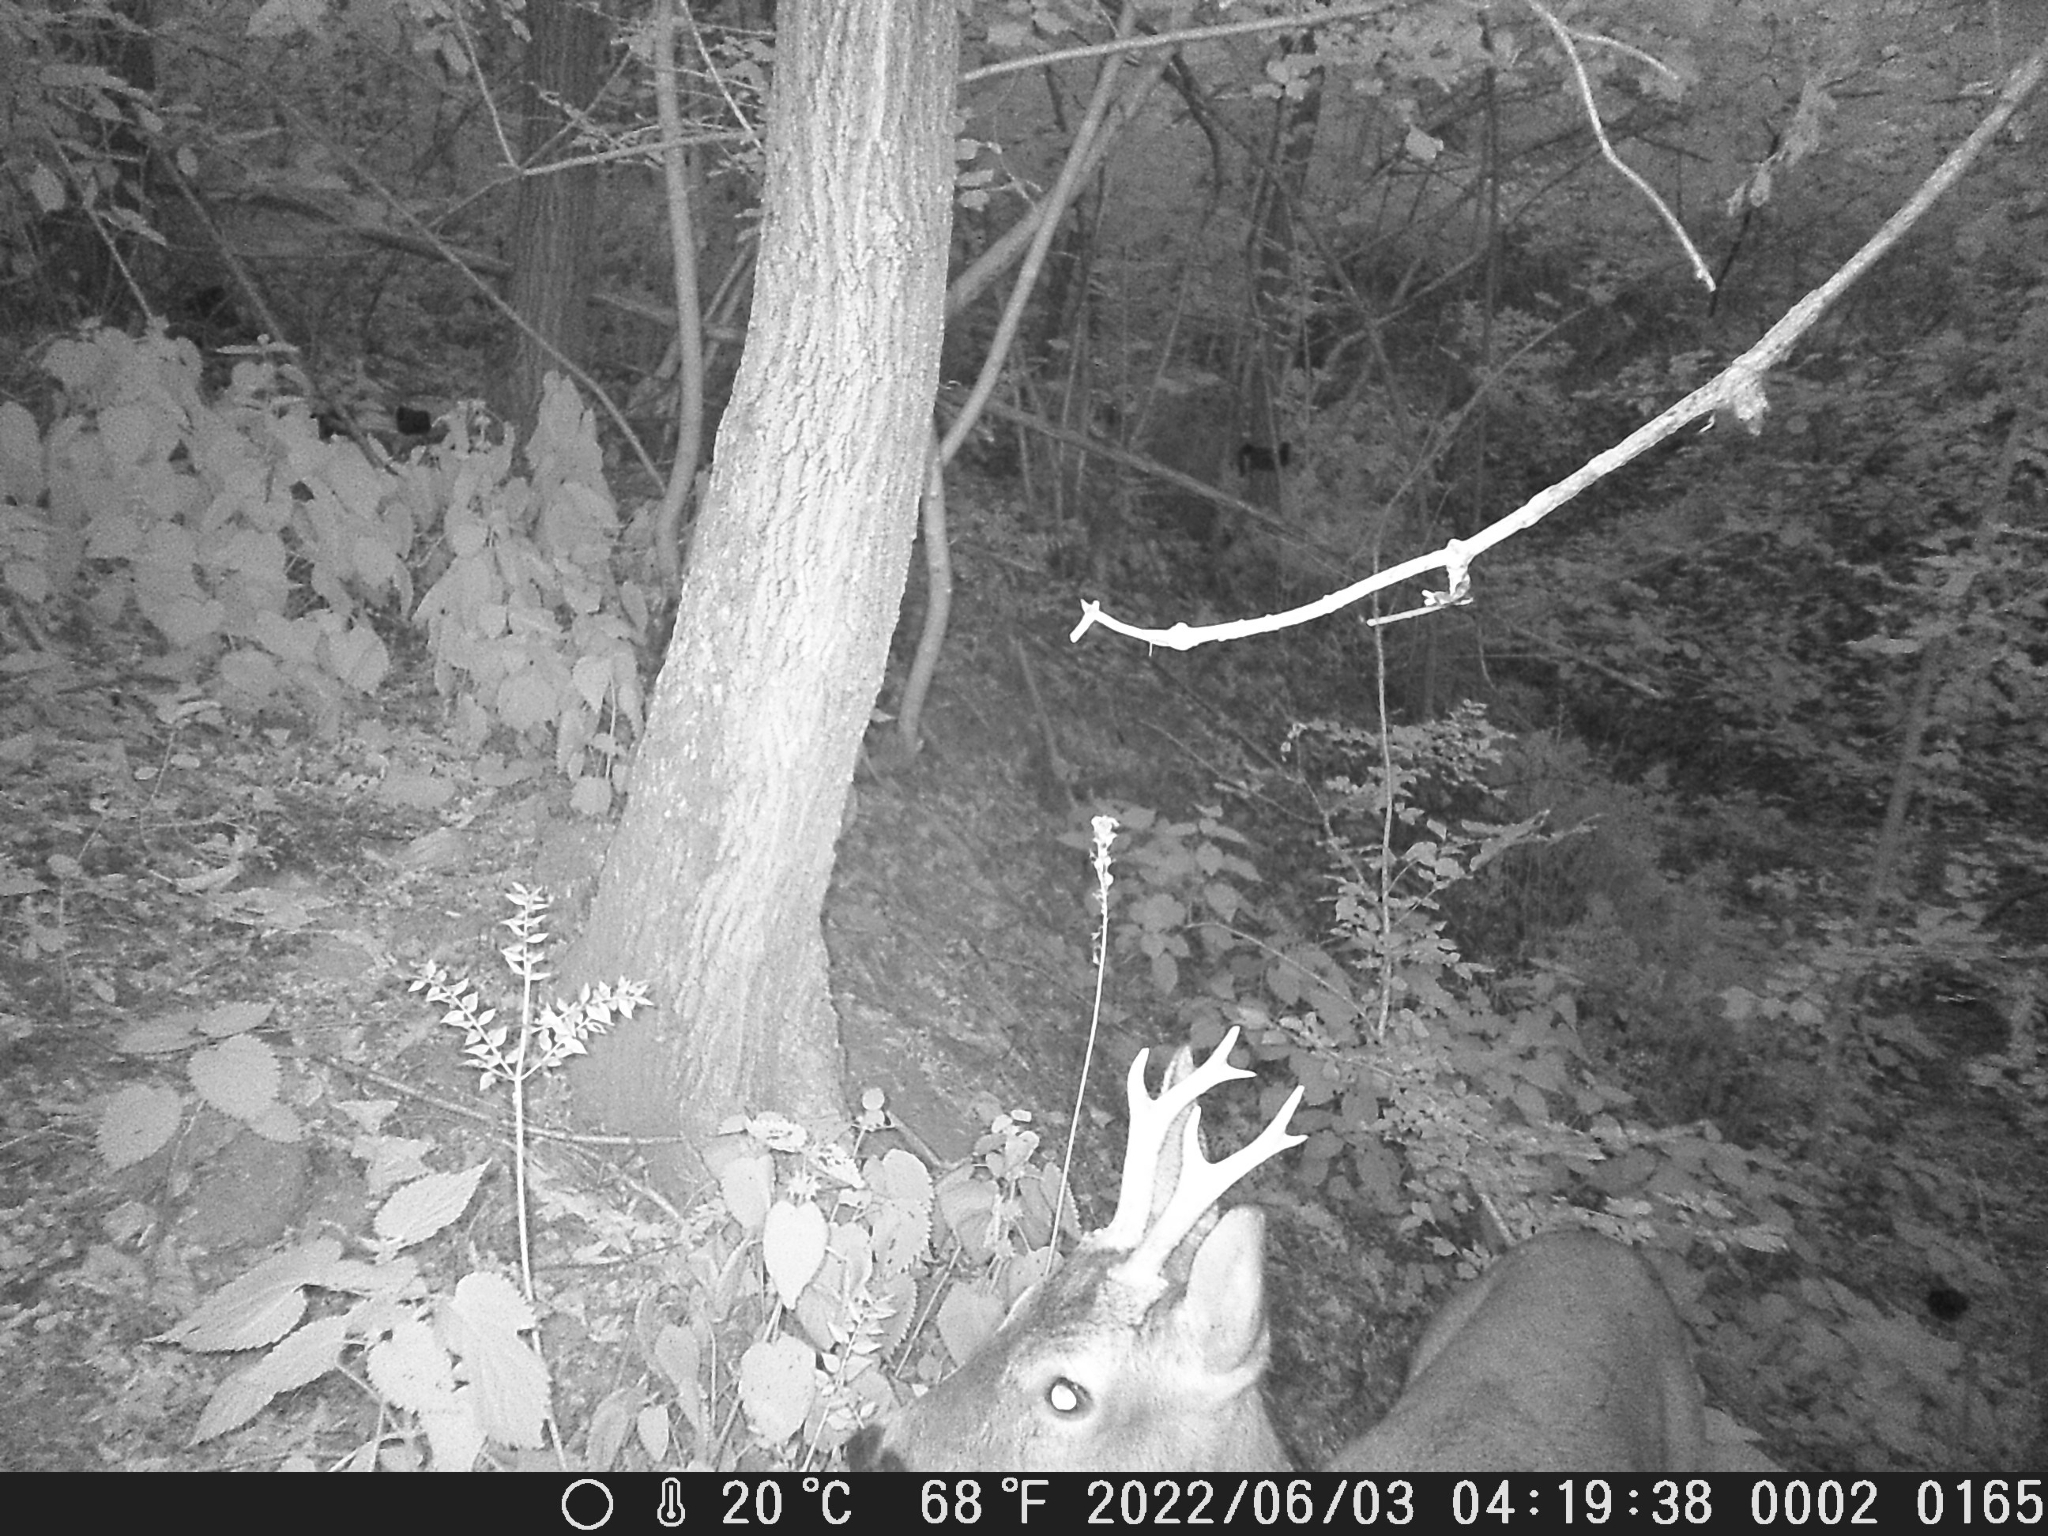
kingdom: Animalia
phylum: Chordata
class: Mammalia
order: Artiodactyla
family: Cervidae
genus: Capreolus
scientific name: Capreolus capreolus
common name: Western roe deer
